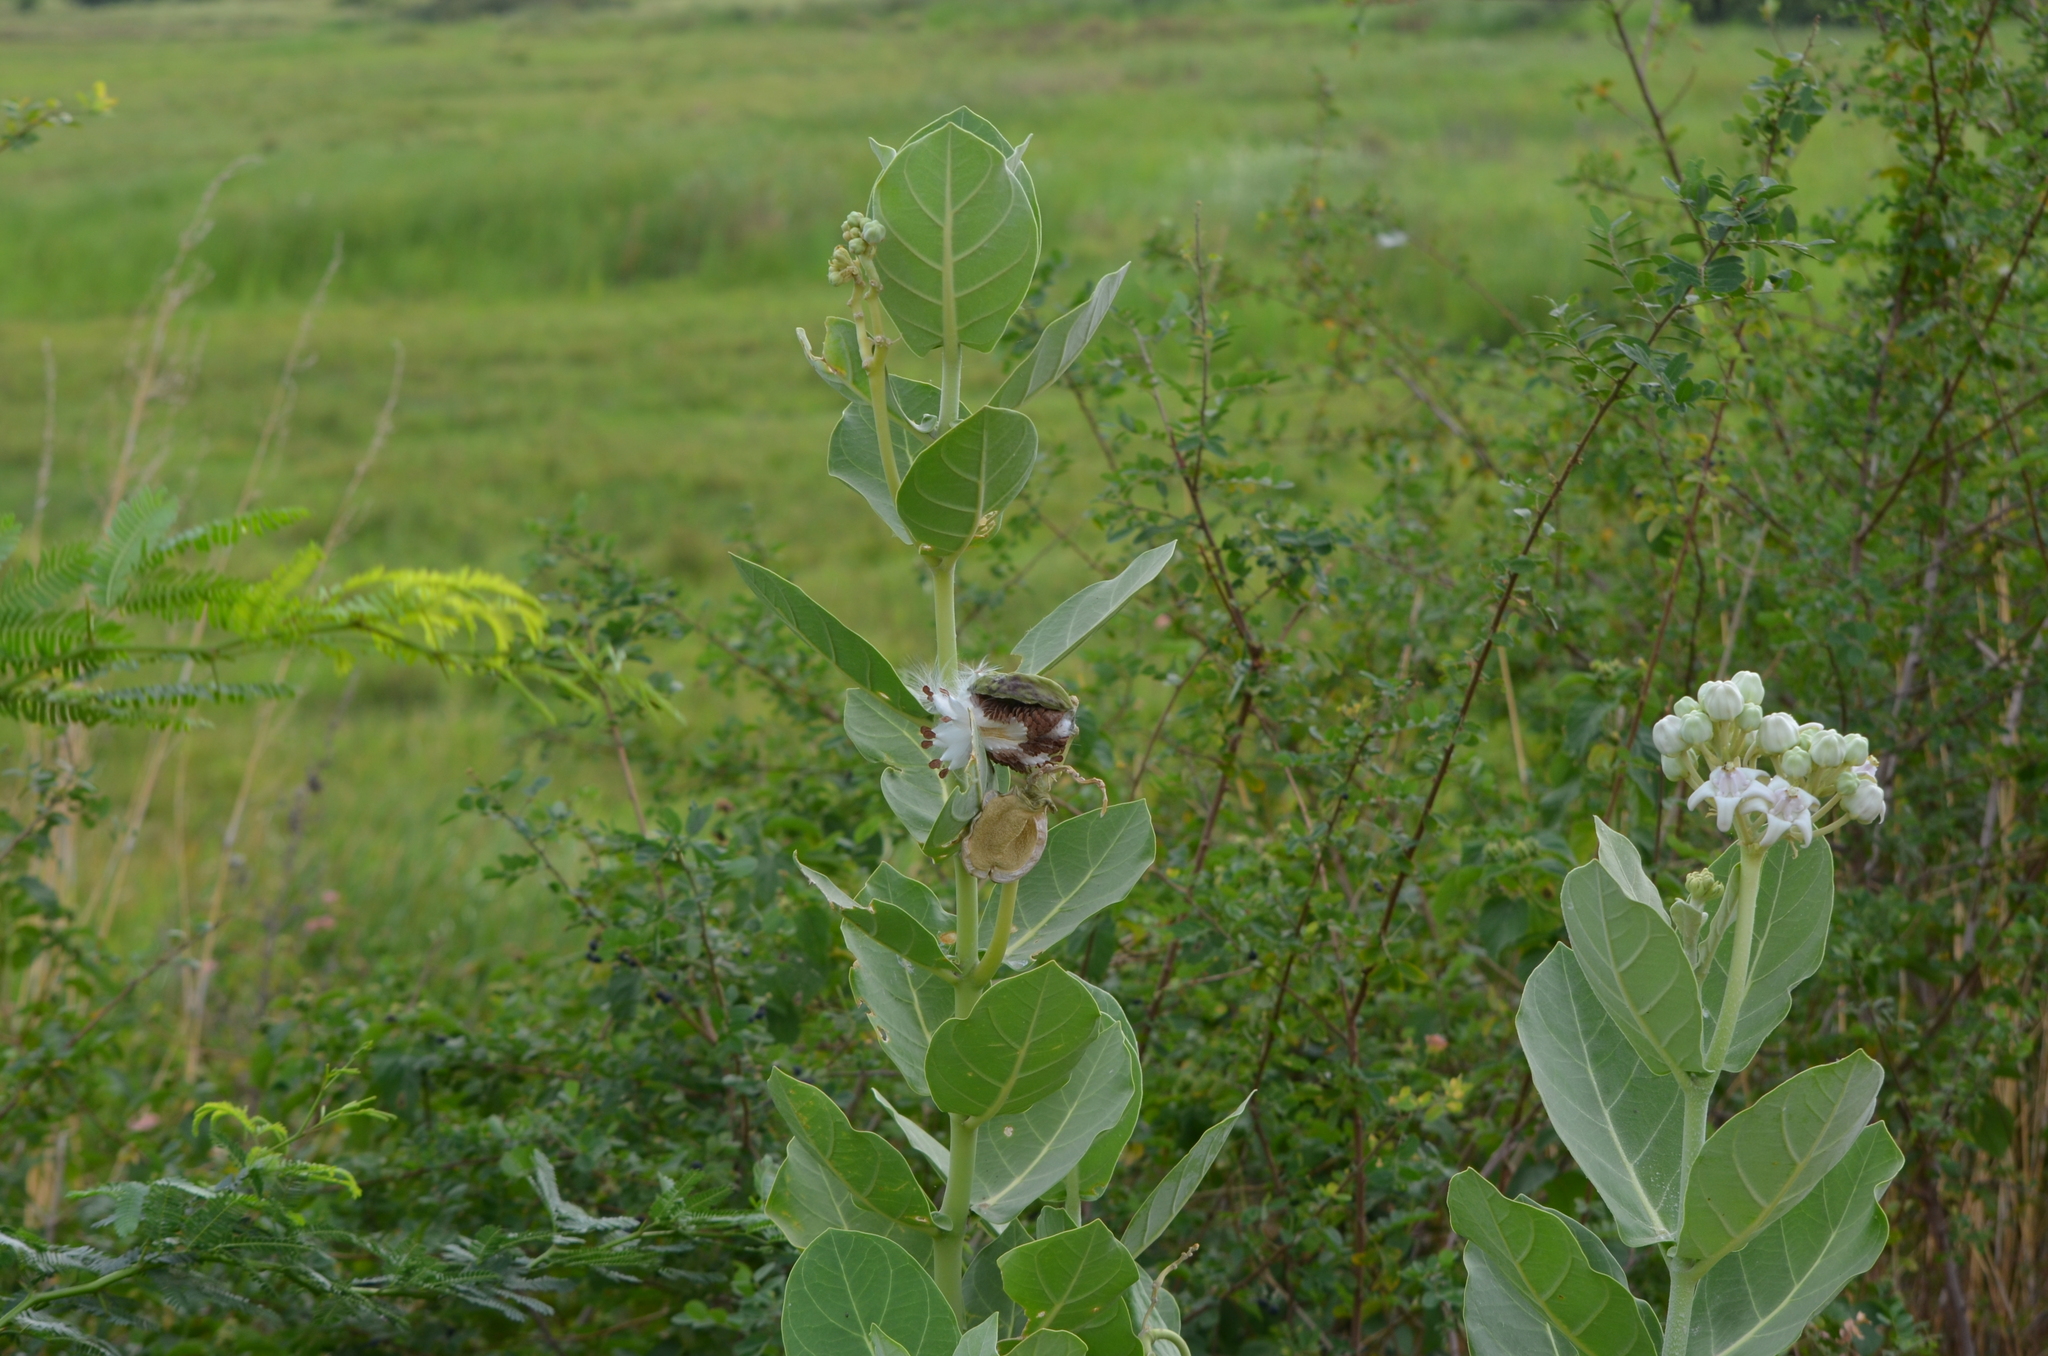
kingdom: Plantae
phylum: Tracheophyta
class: Magnoliopsida
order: Gentianales
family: Apocynaceae
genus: Calotropis
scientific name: Calotropis gigantea
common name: Crown flower
